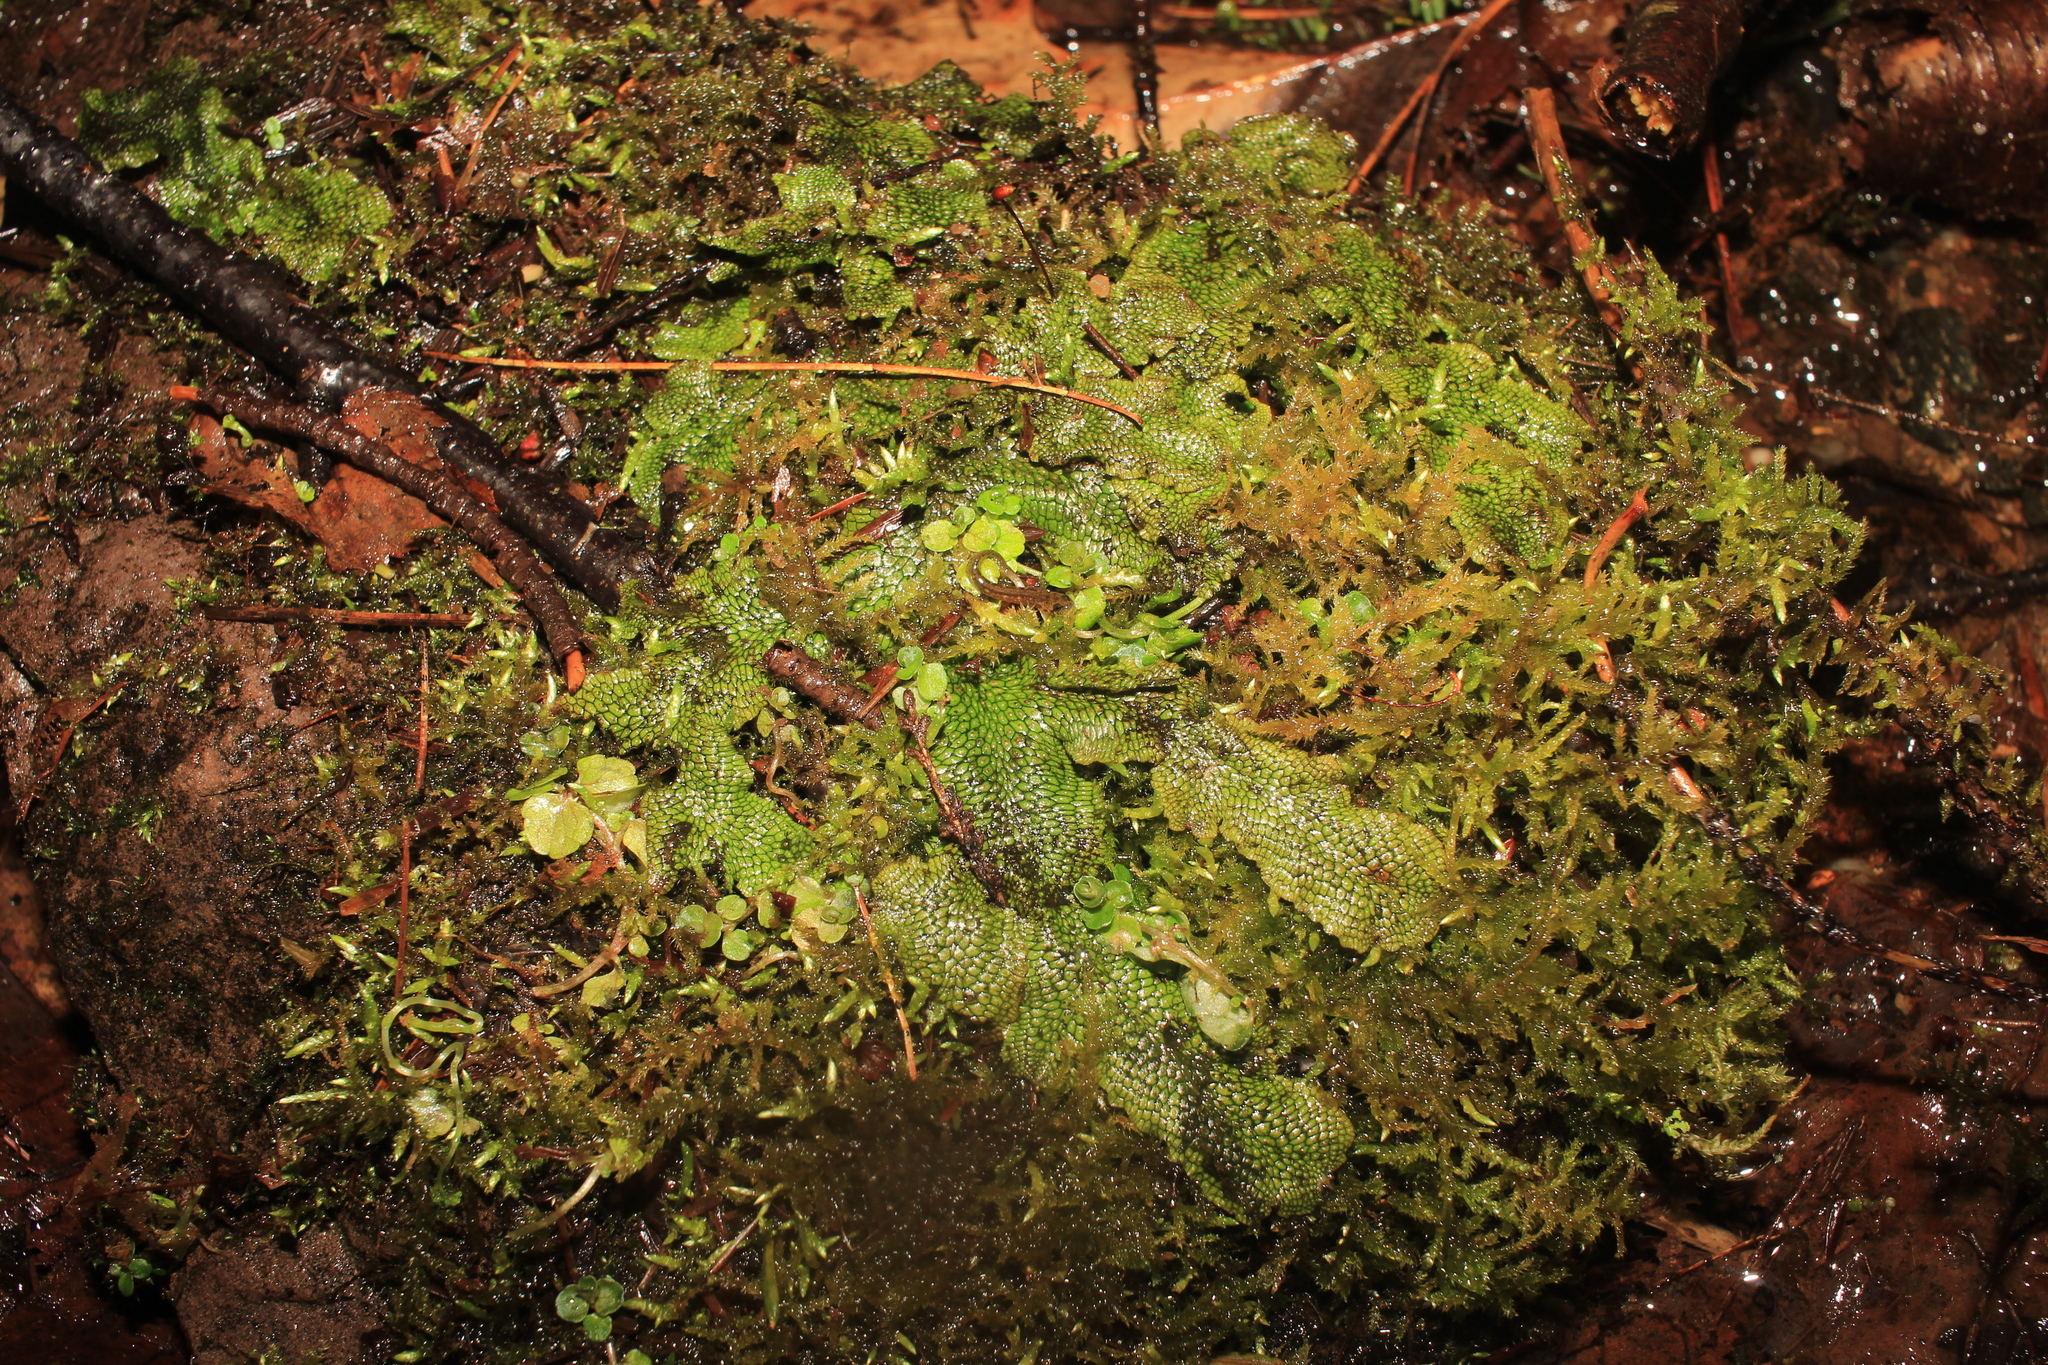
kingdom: Plantae
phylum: Marchantiophyta
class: Marchantiopsida
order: Marchantiales
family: Conocephalaceae
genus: Conocephalum
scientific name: Conocephalum salebrosum
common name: Cat-tongue liverwort
